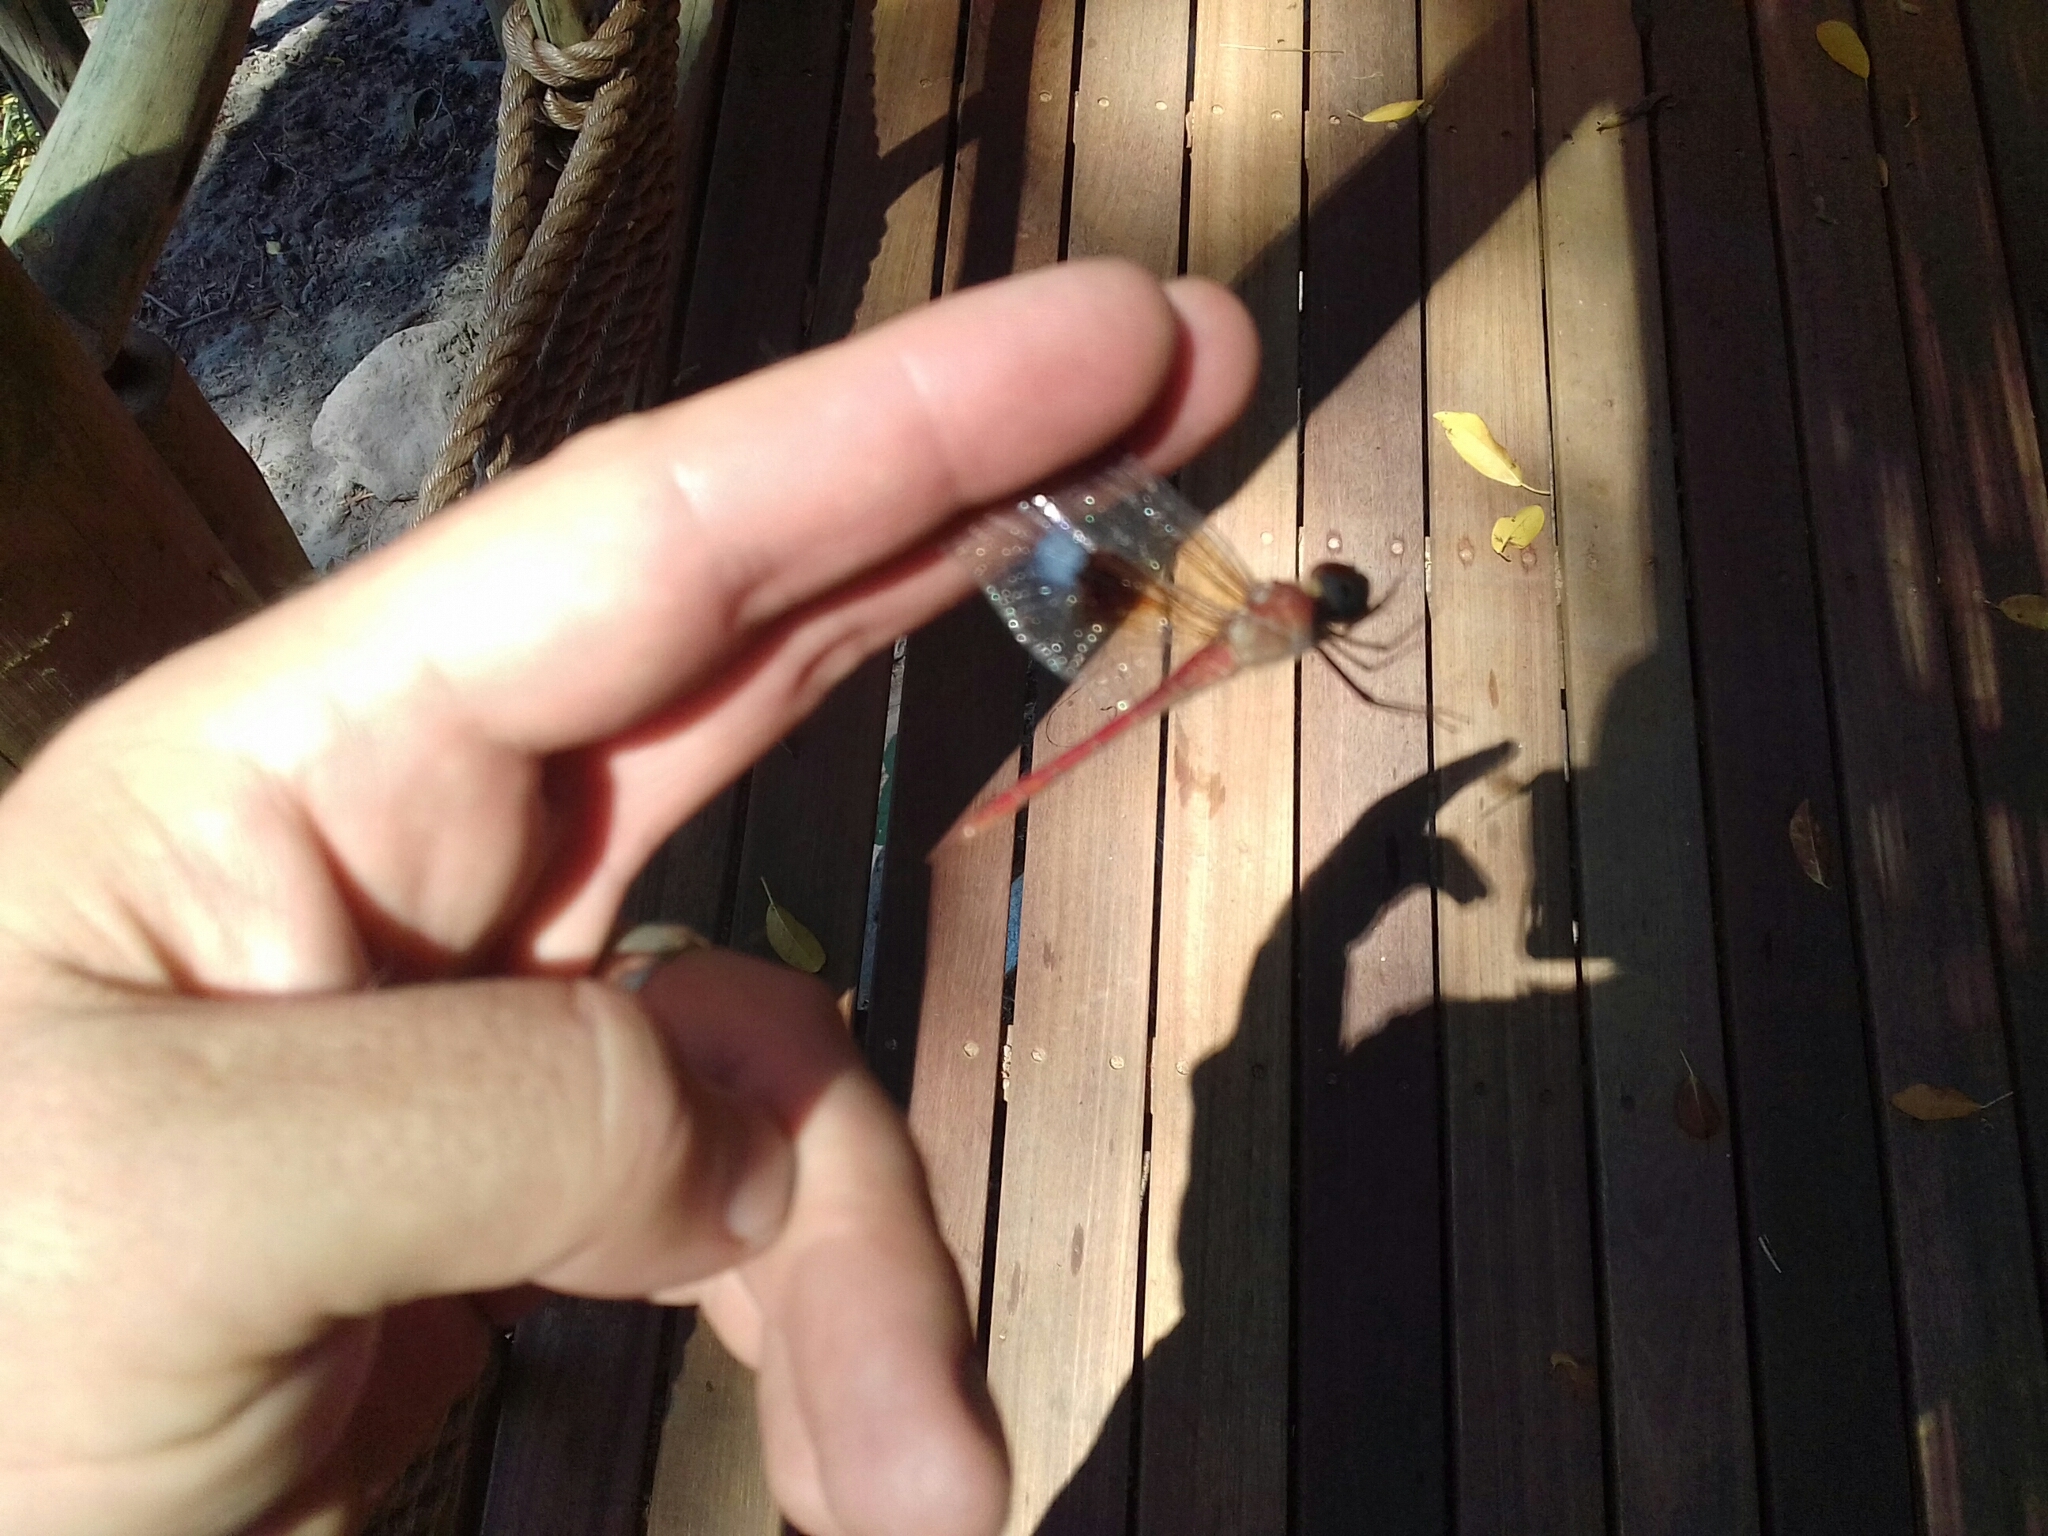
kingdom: Animalia
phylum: Arthropoda
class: Insecta
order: Odonata
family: Libellulidae
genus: Tholymis
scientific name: Tholymis tillarga
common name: Coral-tailed cloud wing
